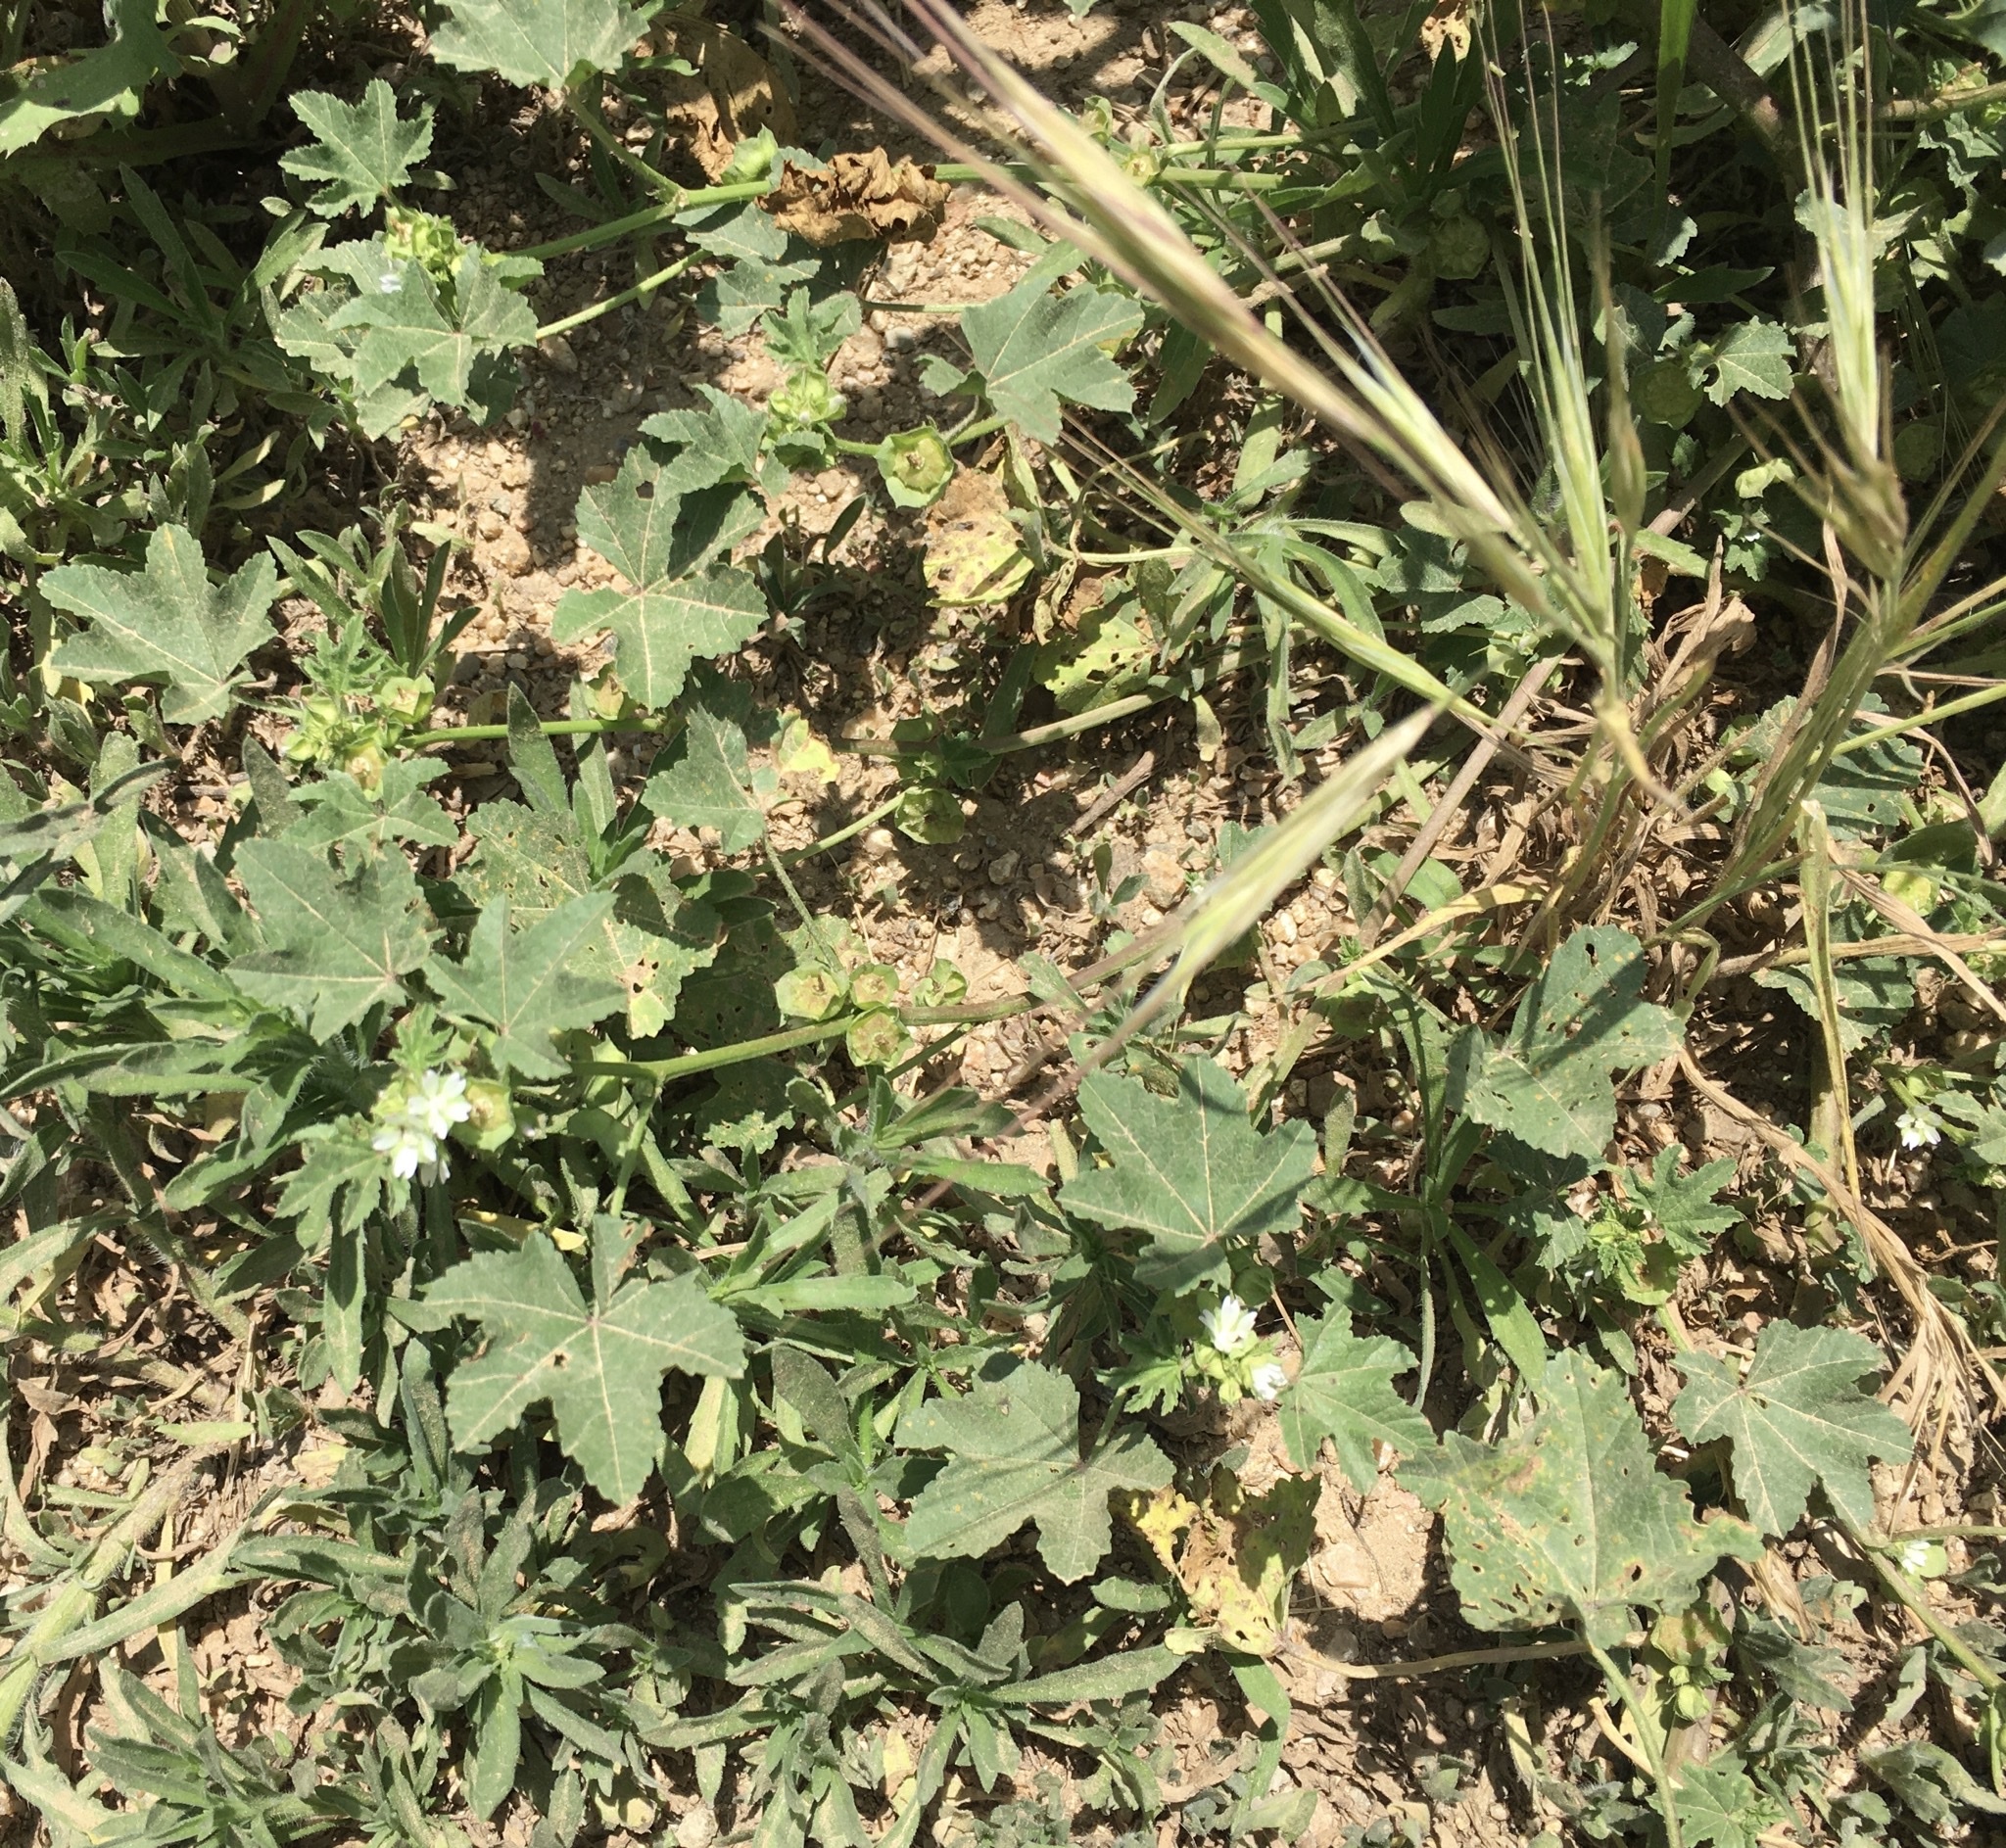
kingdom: Plantae
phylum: Tracheophyta
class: Magnoliopsida
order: Malvales
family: Malvaceae
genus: Malva
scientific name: Malva parviflora
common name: Least mallow
